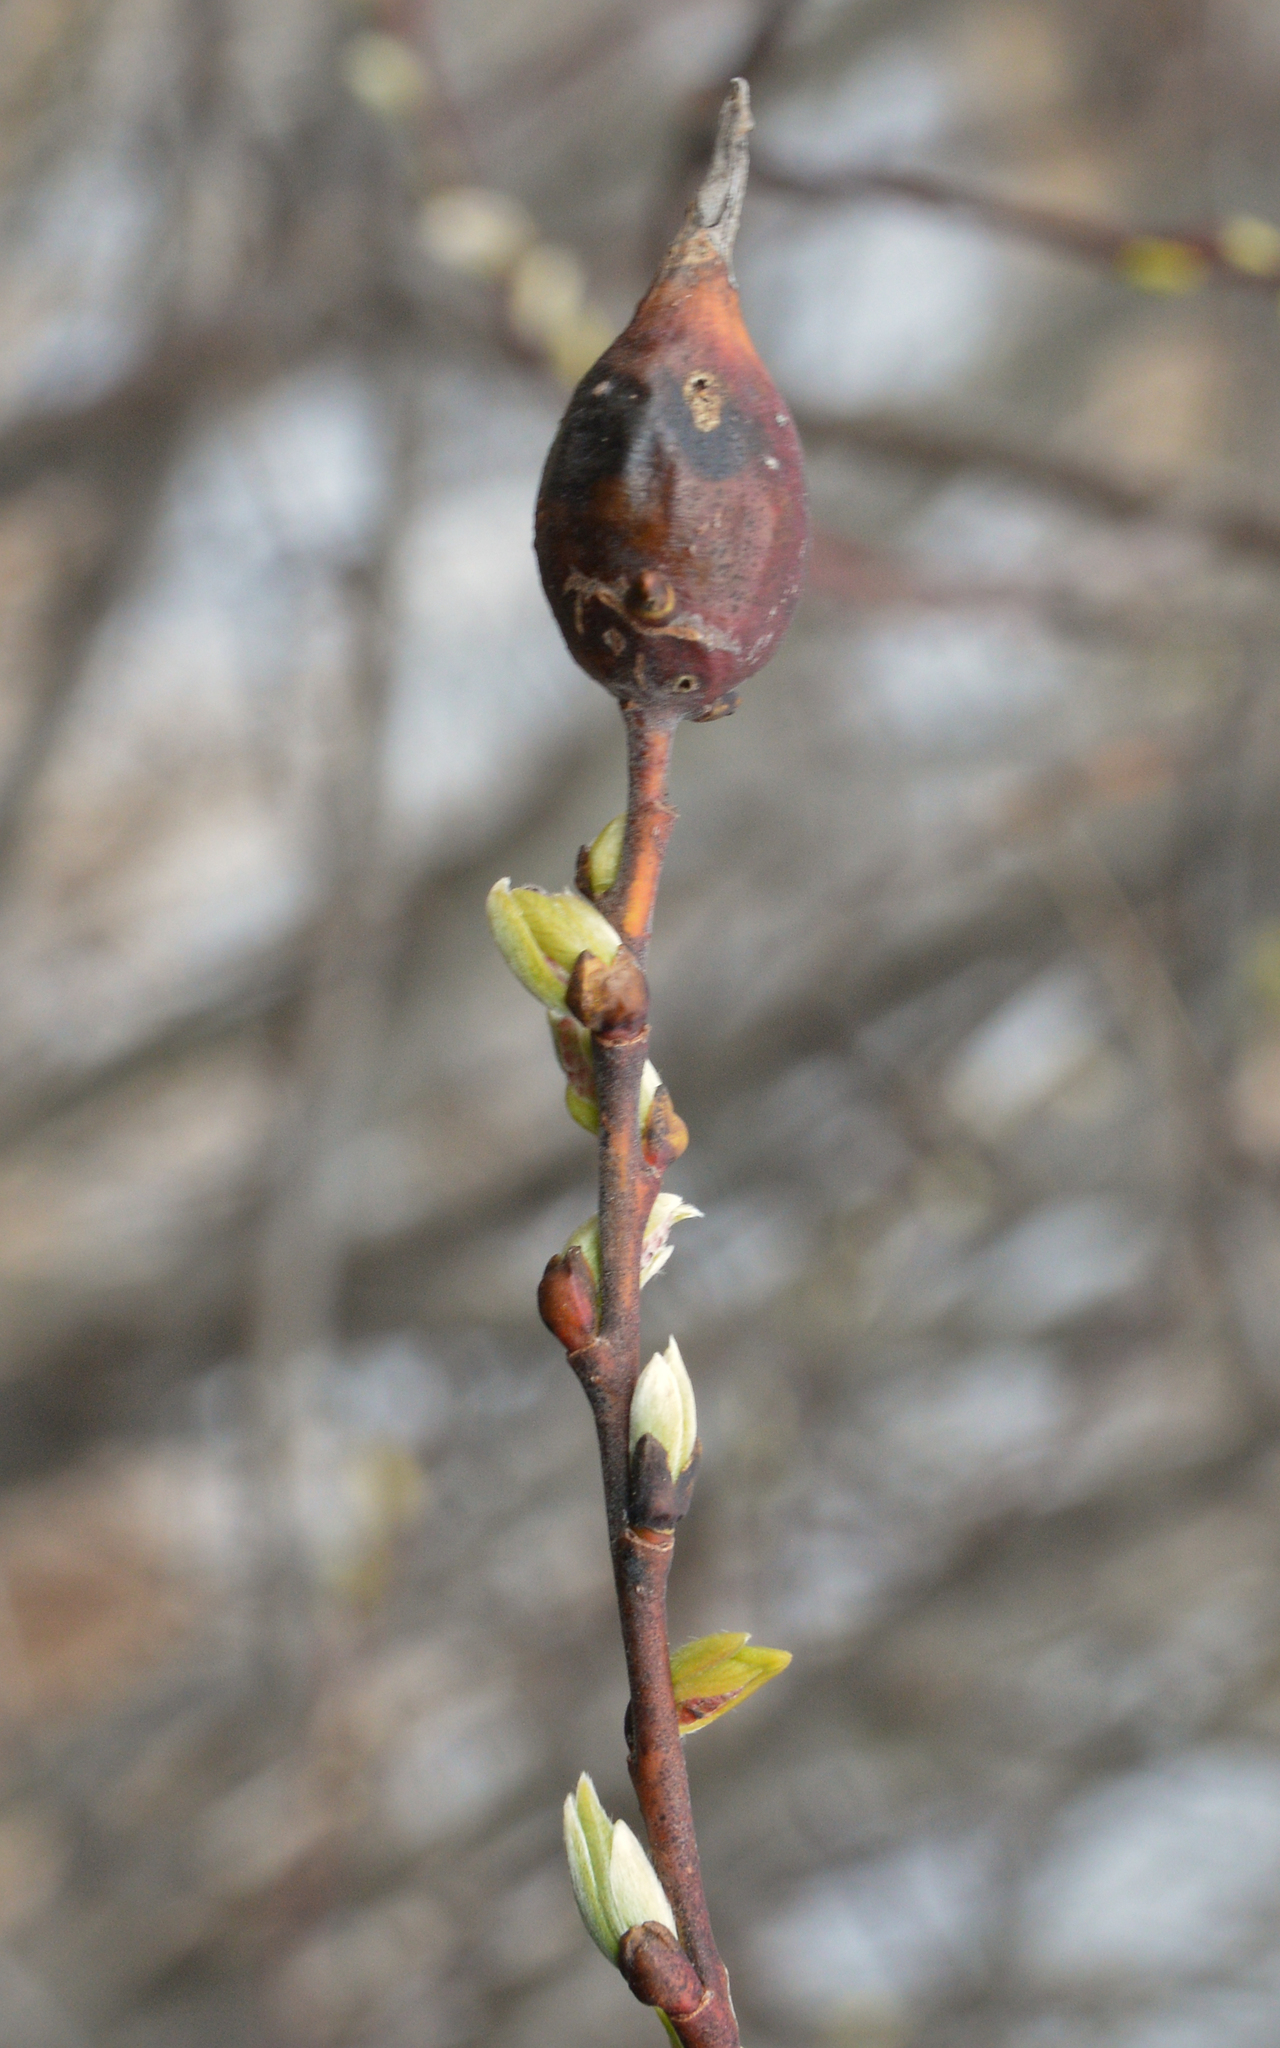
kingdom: Animalia
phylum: Arthropoda
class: Insecta
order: Diptera
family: Cecidomyiidae
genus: Thecodiplosis
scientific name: Thecodiplosis pinirigidae
